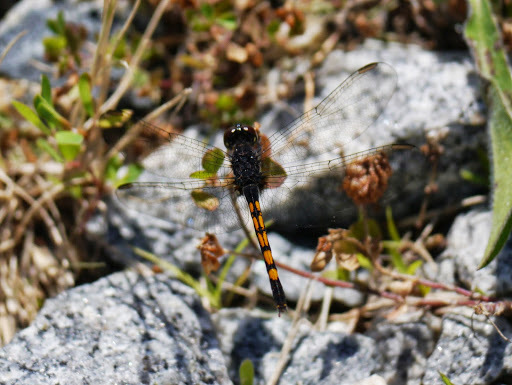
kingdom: Animalia
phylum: Arthropoda
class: Insecta
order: Odonata
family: Libellulidae
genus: Erythrodiplax
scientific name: Erythrodiplax berenice
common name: Seaside dragonlet
